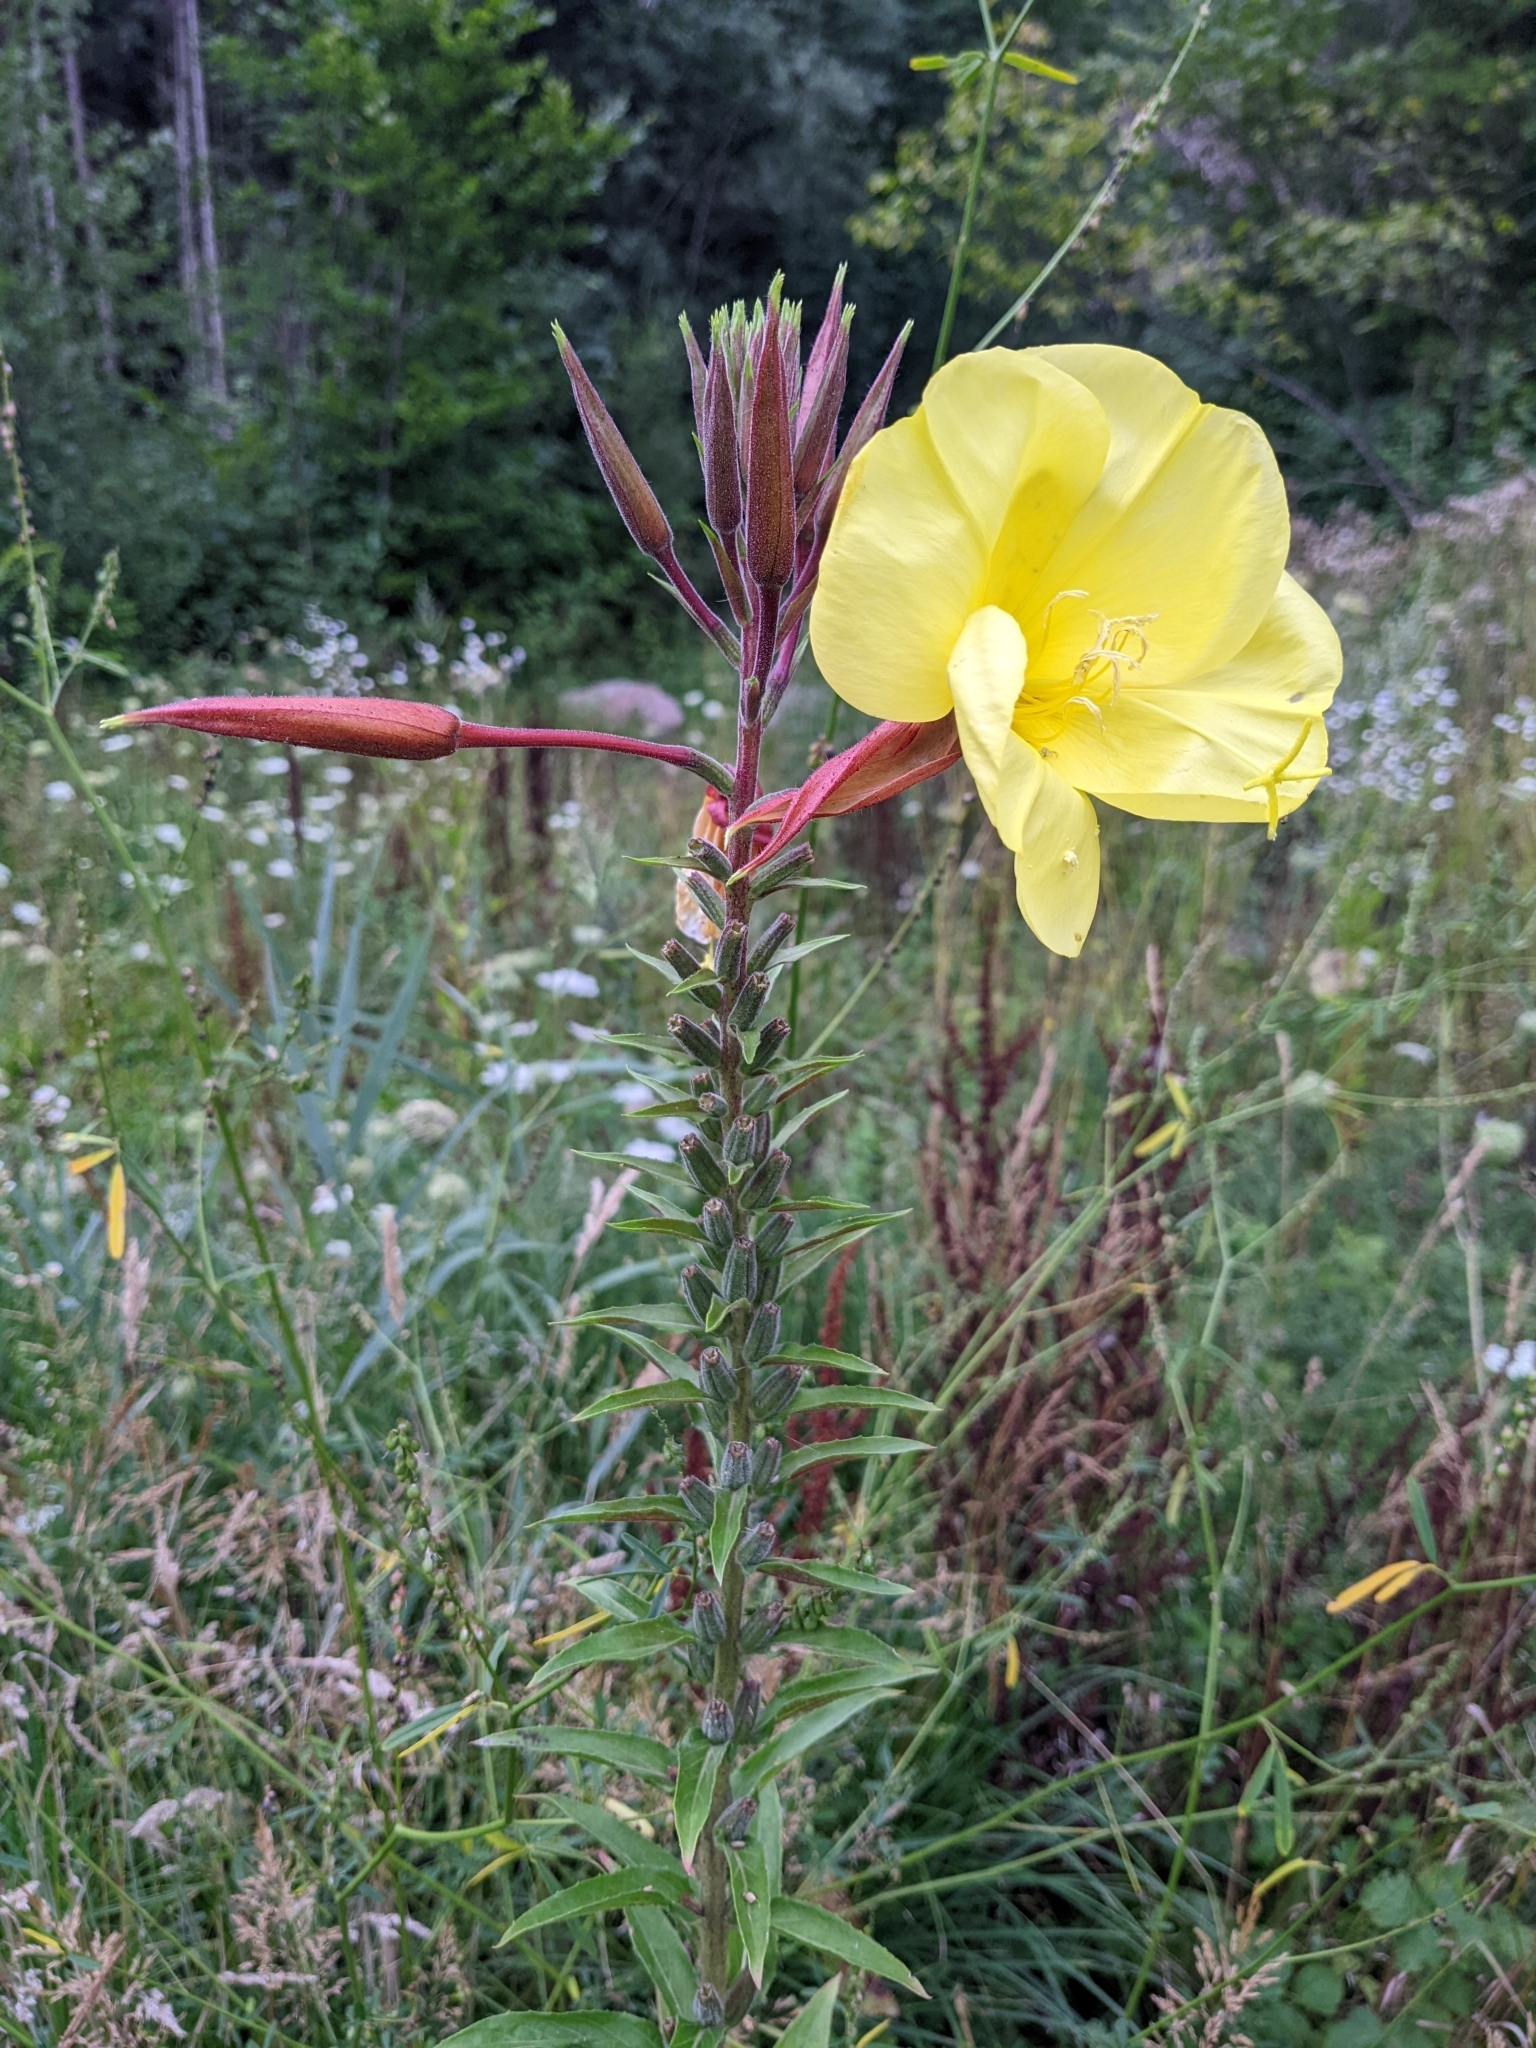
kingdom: Plantae
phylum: Tracheophyta
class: Magnoliopsida
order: Myrtales
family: Onagraceae
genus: Oenothera
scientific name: Oenothera glazioviana
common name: Large-flowered evening-primrose
